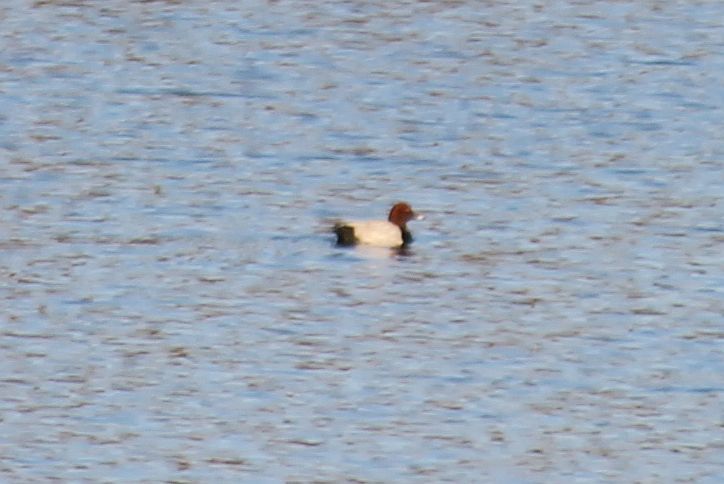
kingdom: Animalia
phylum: Chordata
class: Aves
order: Anseriformes
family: Anatidae
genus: Aythya
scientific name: Aythya ferina
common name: Common pochard
